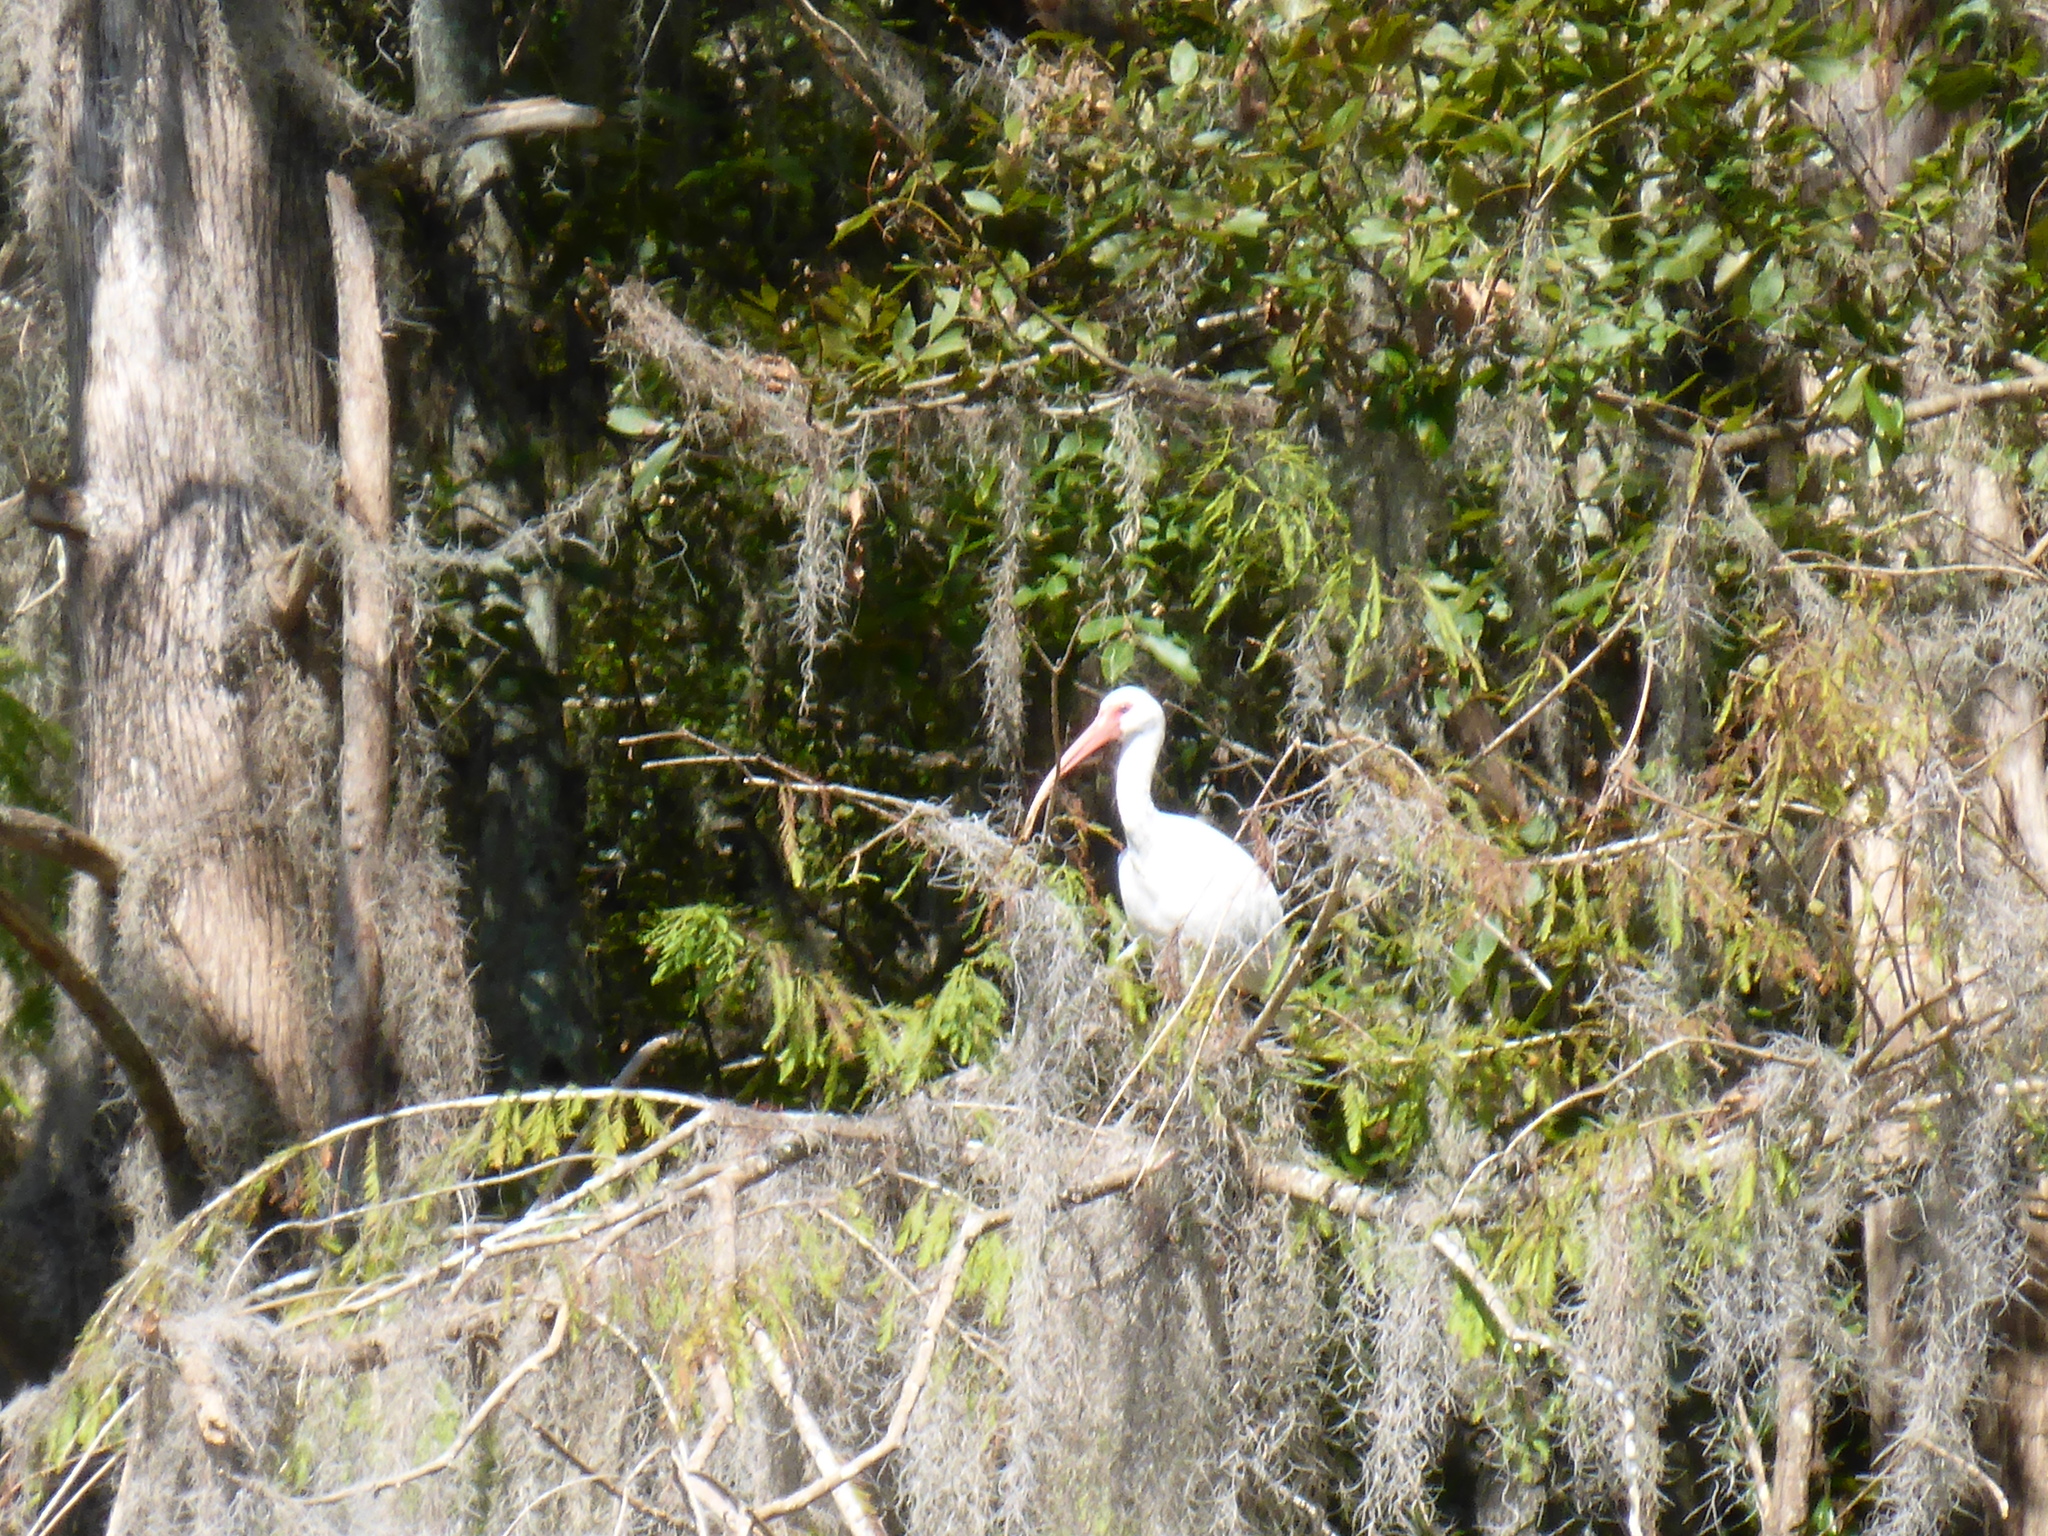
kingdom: Animalia
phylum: Chordata
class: Aves
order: Pelecaniformes
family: Threskiornithidae
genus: Eudocimus
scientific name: Eudocimus albus
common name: White ibis
